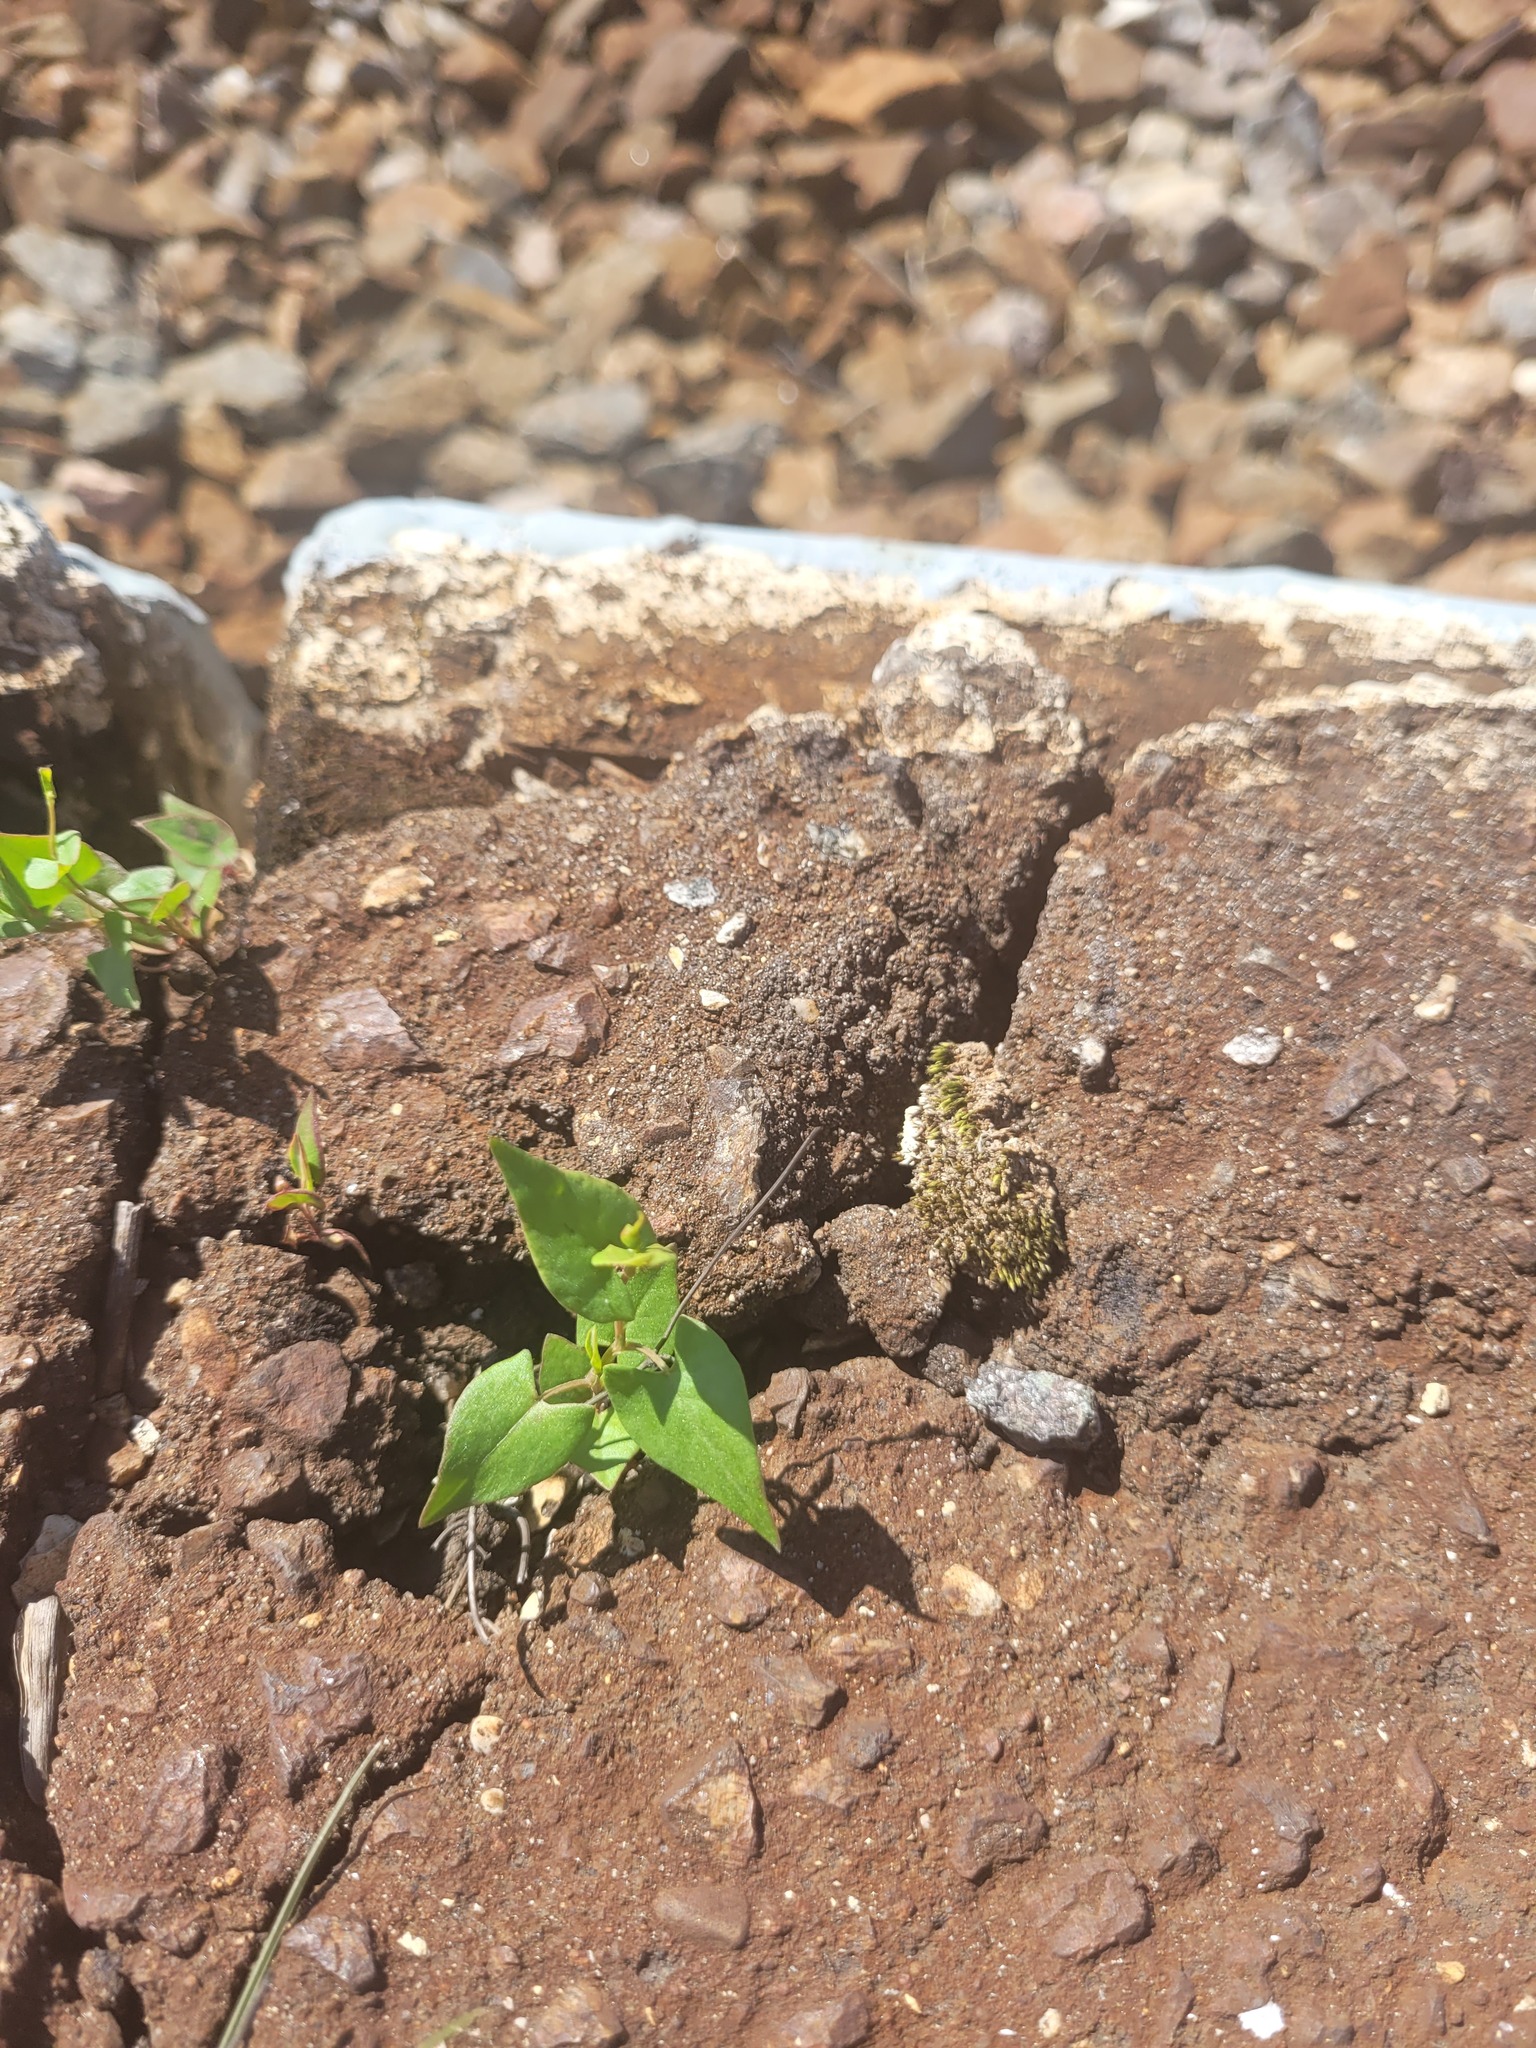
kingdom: Plantae
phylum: Tracheophyta
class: Magnoliopsida
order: Caryophyllales
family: Polygonaceae
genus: Fallopia
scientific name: Fallopia convolvulus
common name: Black bindweed
